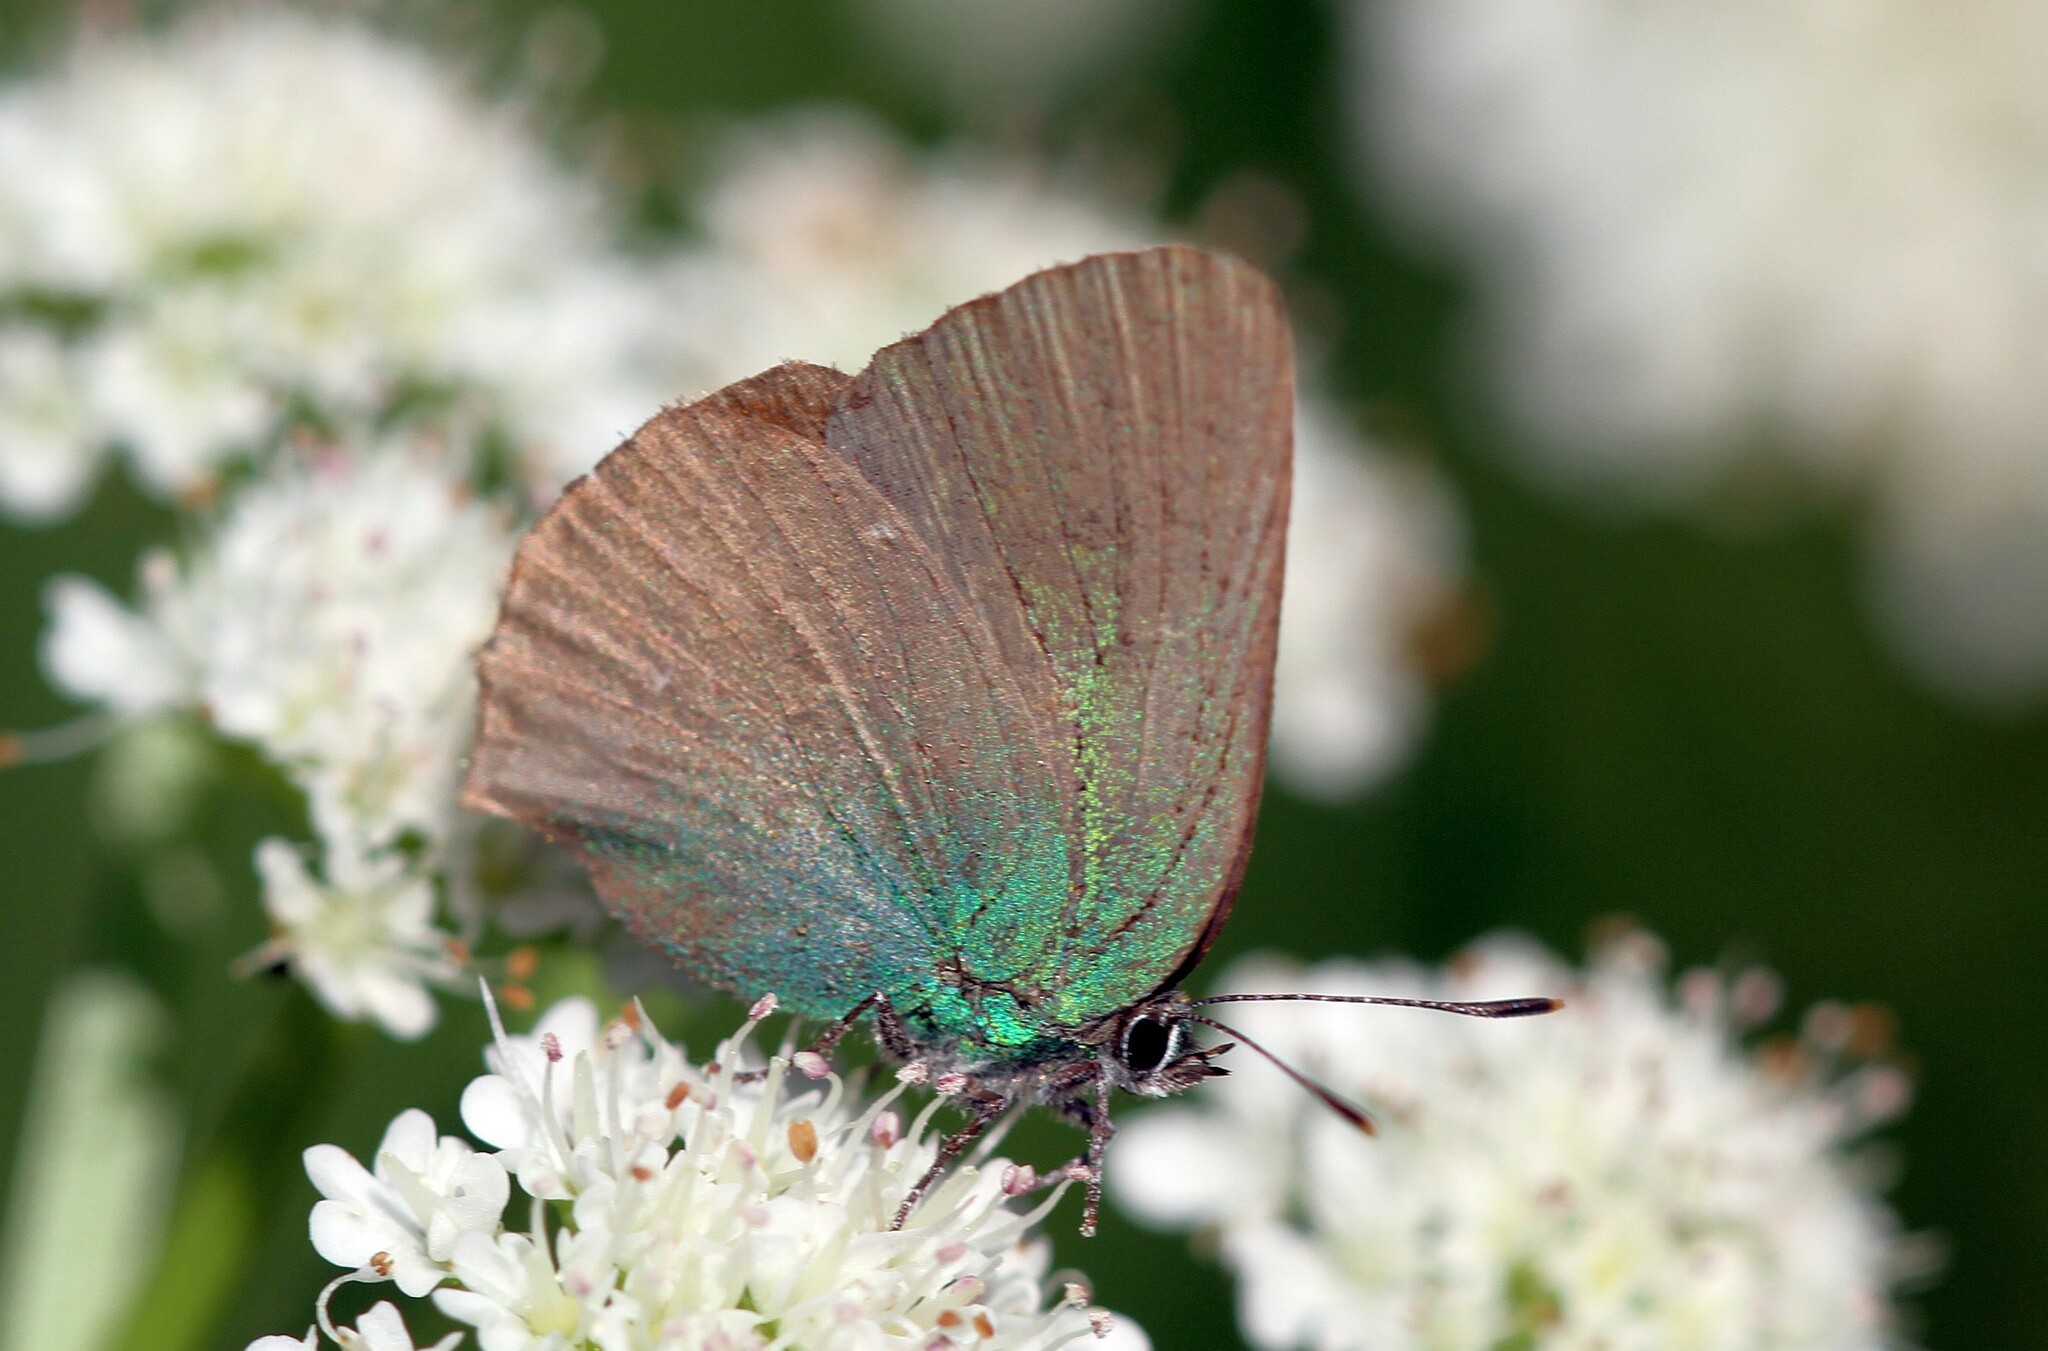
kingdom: Animalia
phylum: Arthropoda
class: Insecta
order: Lepidoptera
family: Lycaenidae
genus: Callophrys
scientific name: Callophrys rubi
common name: Green hairstreak
